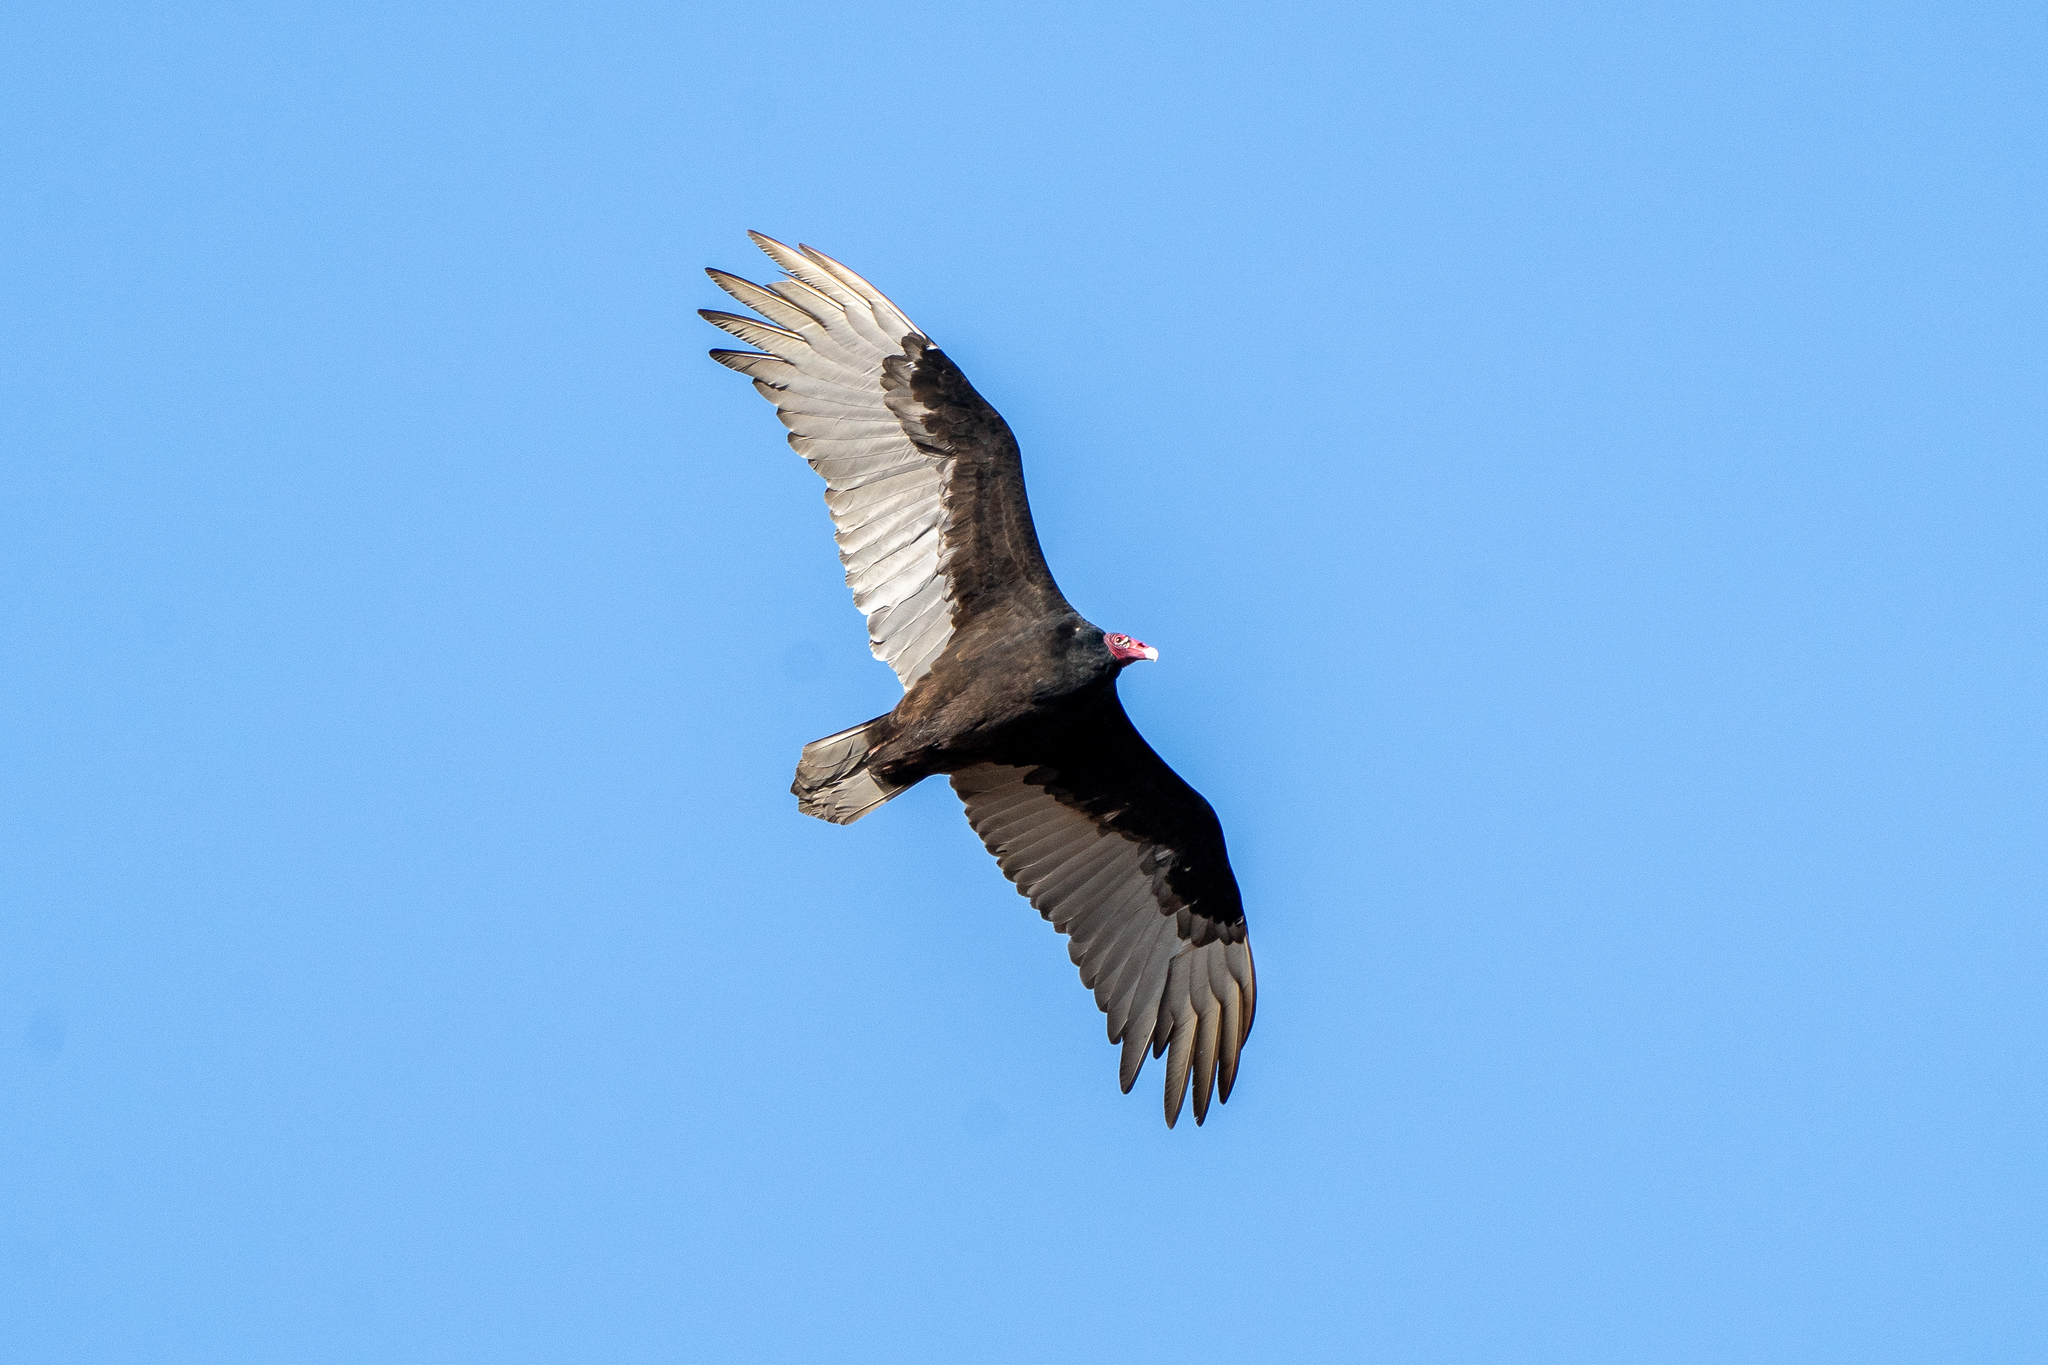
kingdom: Animalia
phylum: Chordata
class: Aves
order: Accipitriformes
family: Cathartidae
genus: Cathartes
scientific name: Cathartes aura
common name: Turkey vulture
